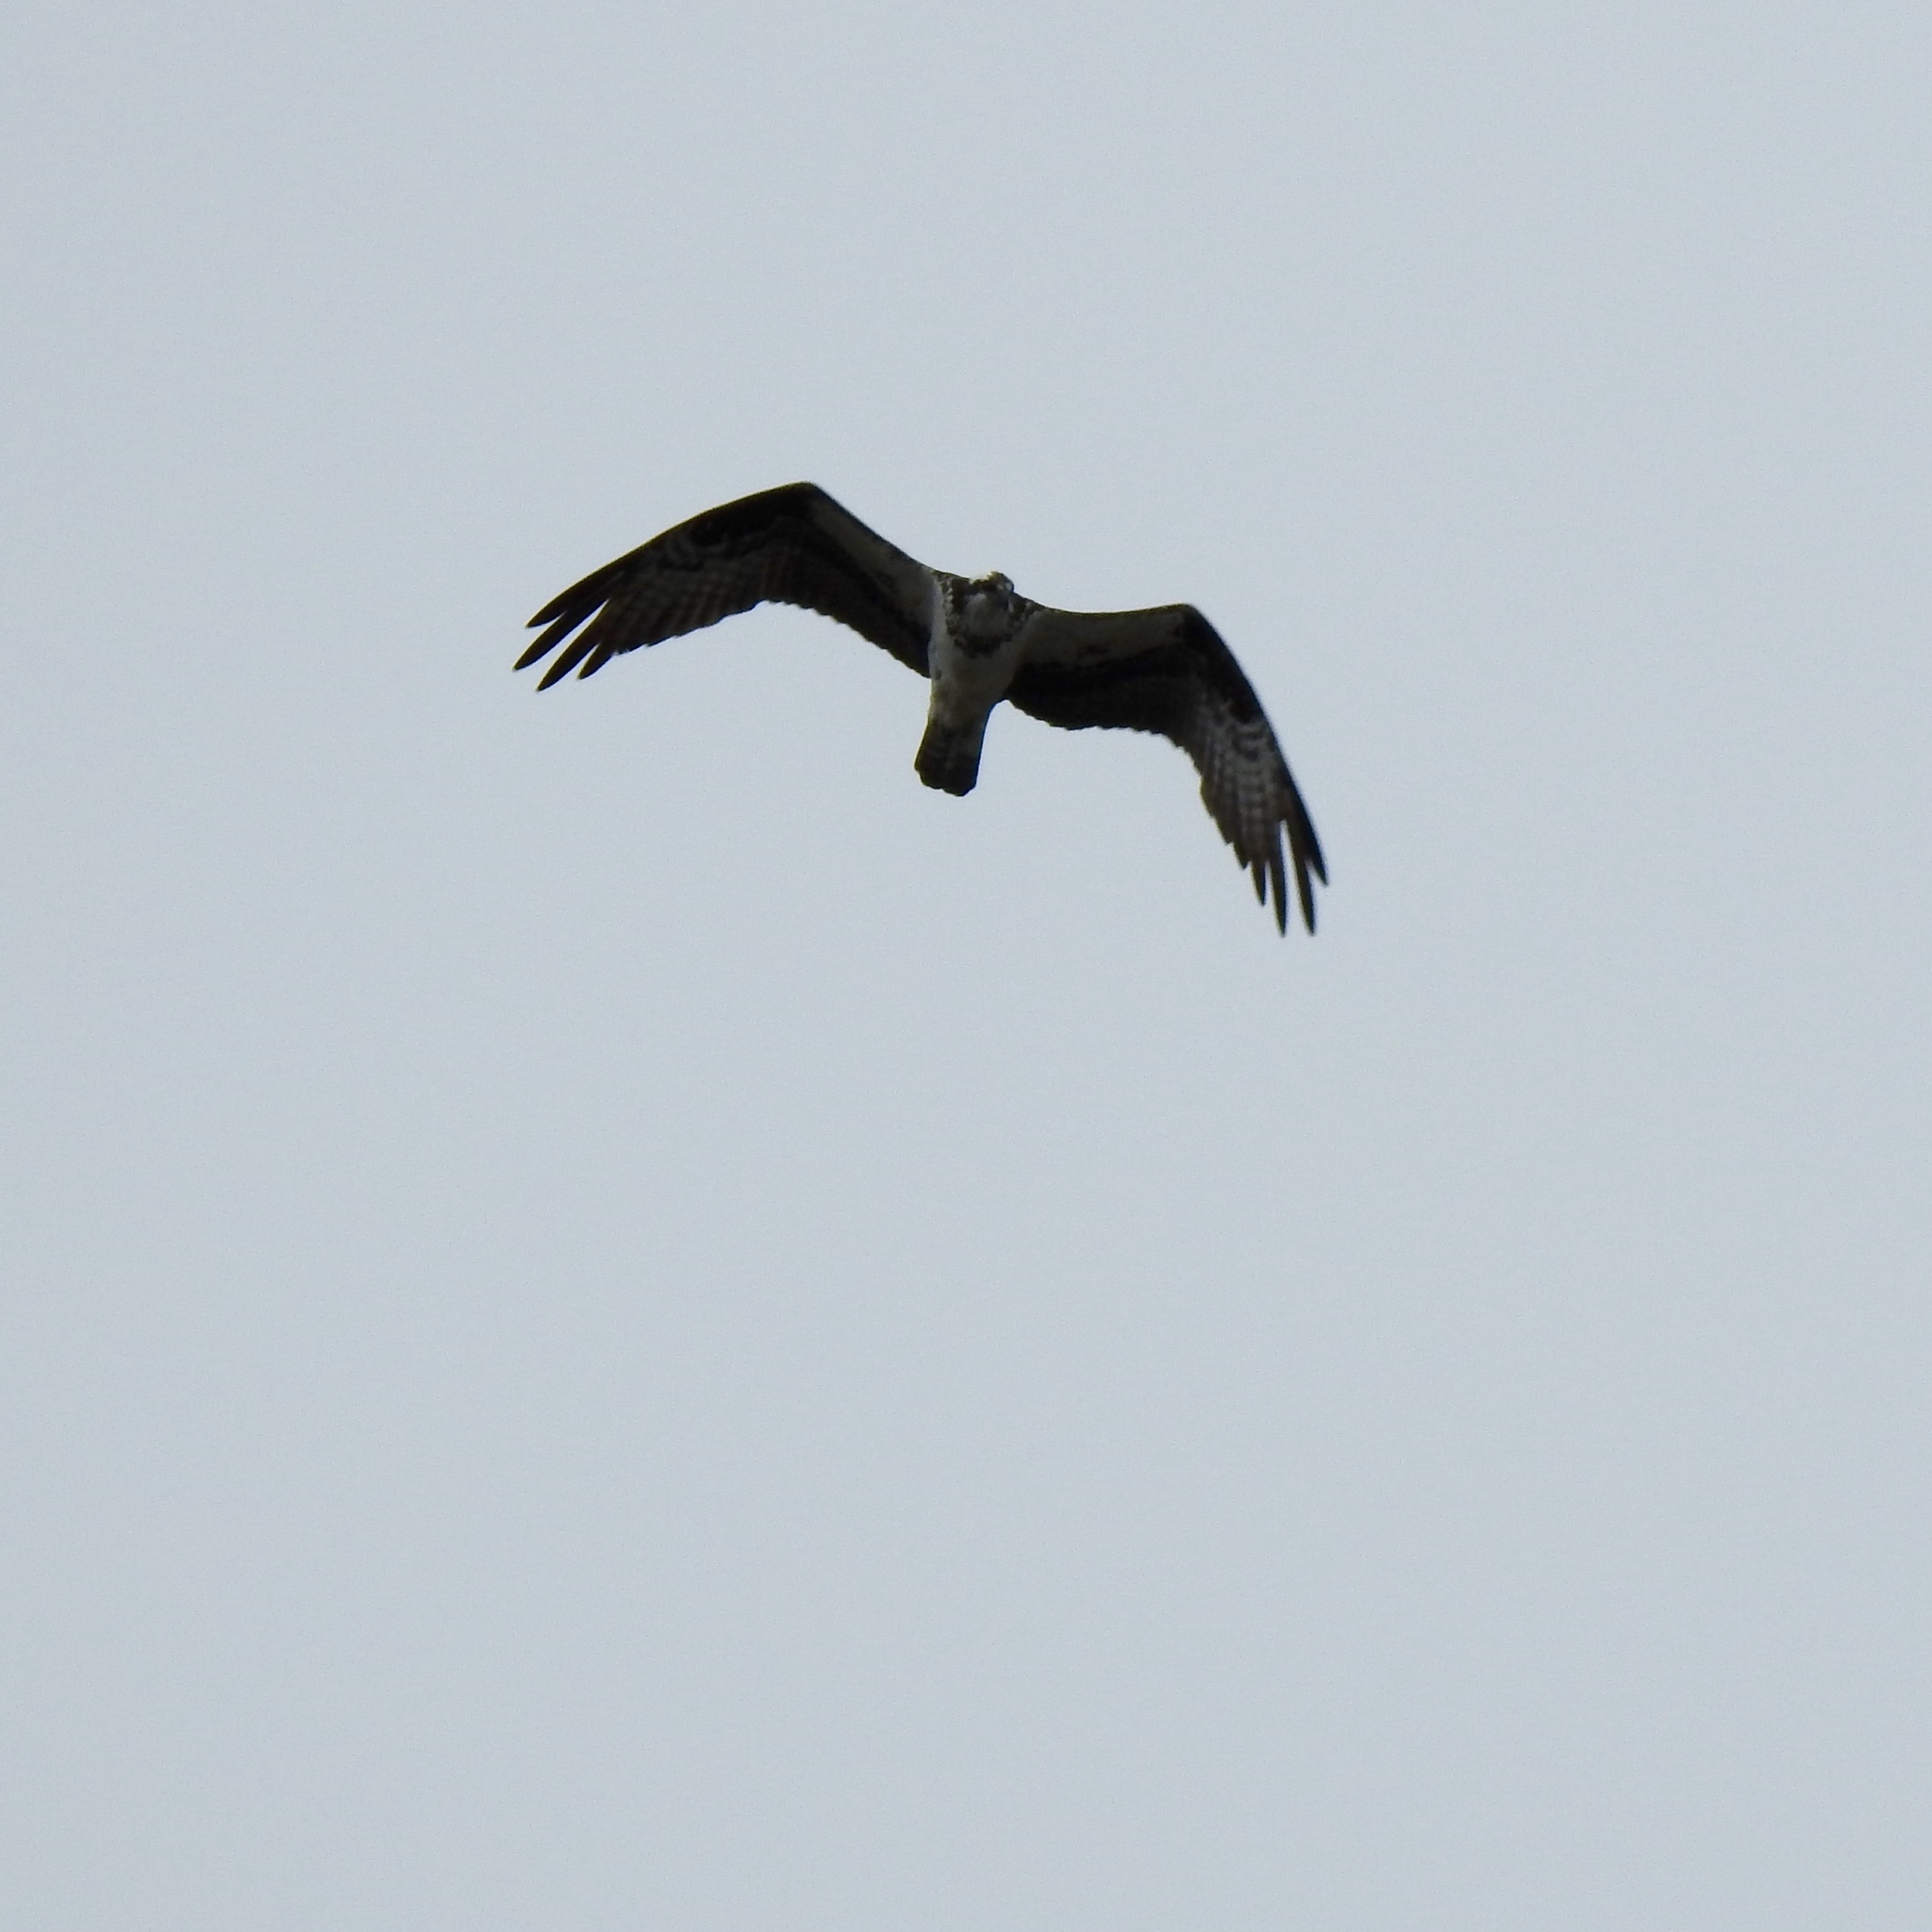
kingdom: Animalia
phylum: Chordata
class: Aves
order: Accipitriformes
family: Pandionidae
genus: Pandion
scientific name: Pandion haliaetus
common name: Osprey
